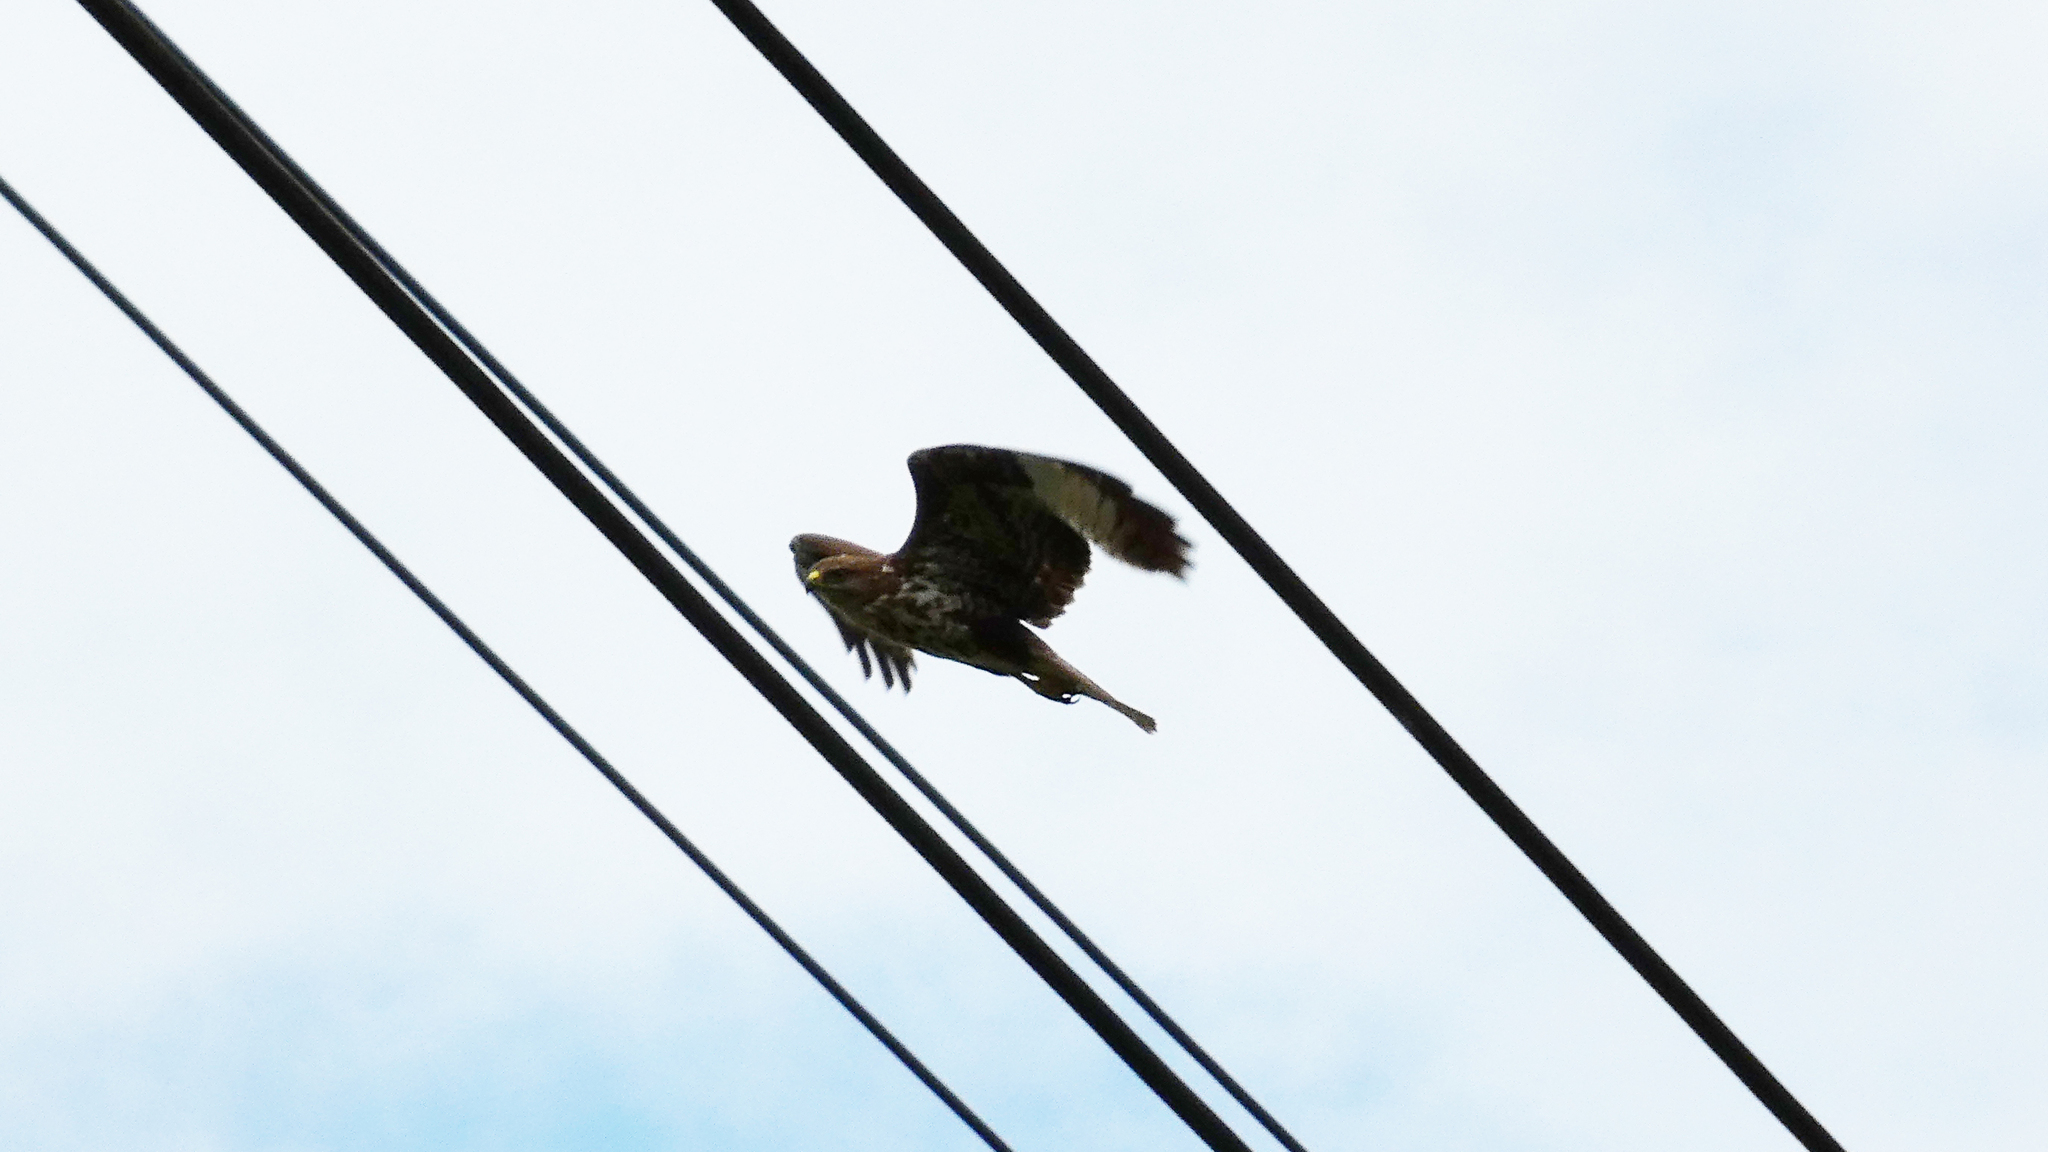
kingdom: Animalia
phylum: Chordata
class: Aves
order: Accipitriformes
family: Accipitridae
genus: Buteo
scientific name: Buteo buteo
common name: Common buzzard
